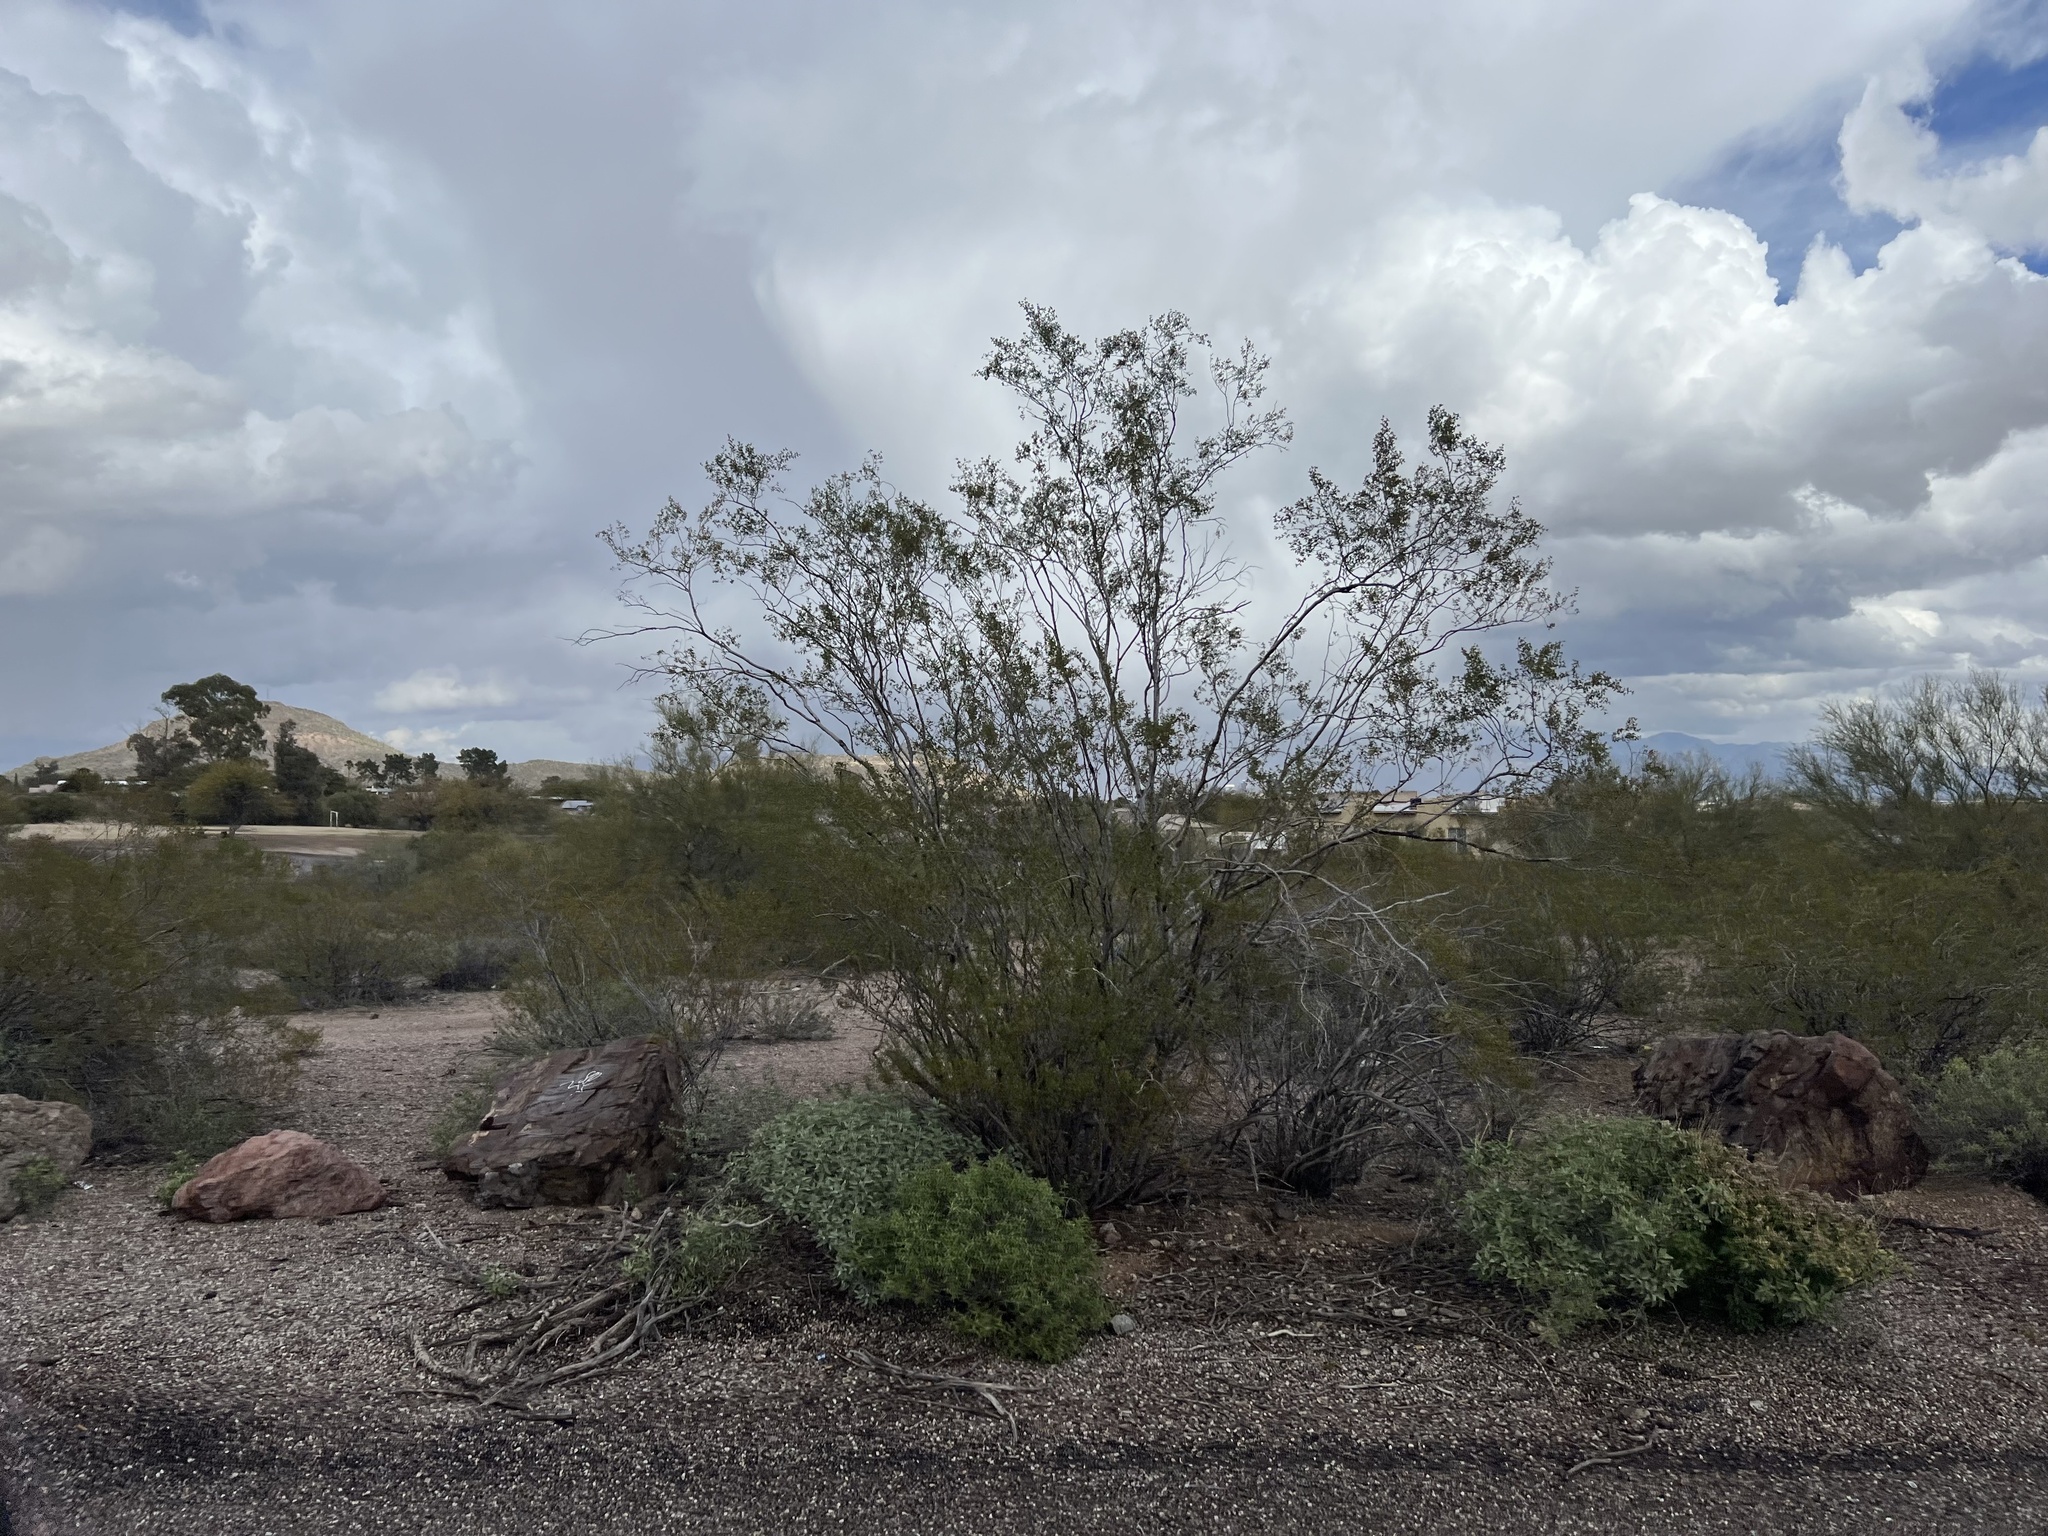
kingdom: Plantae
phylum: Tracheophyta
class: Magnoliopsida
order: Zygophyllales
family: Zygophyllaceae
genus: Larrea
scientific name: Larrea tridentata
